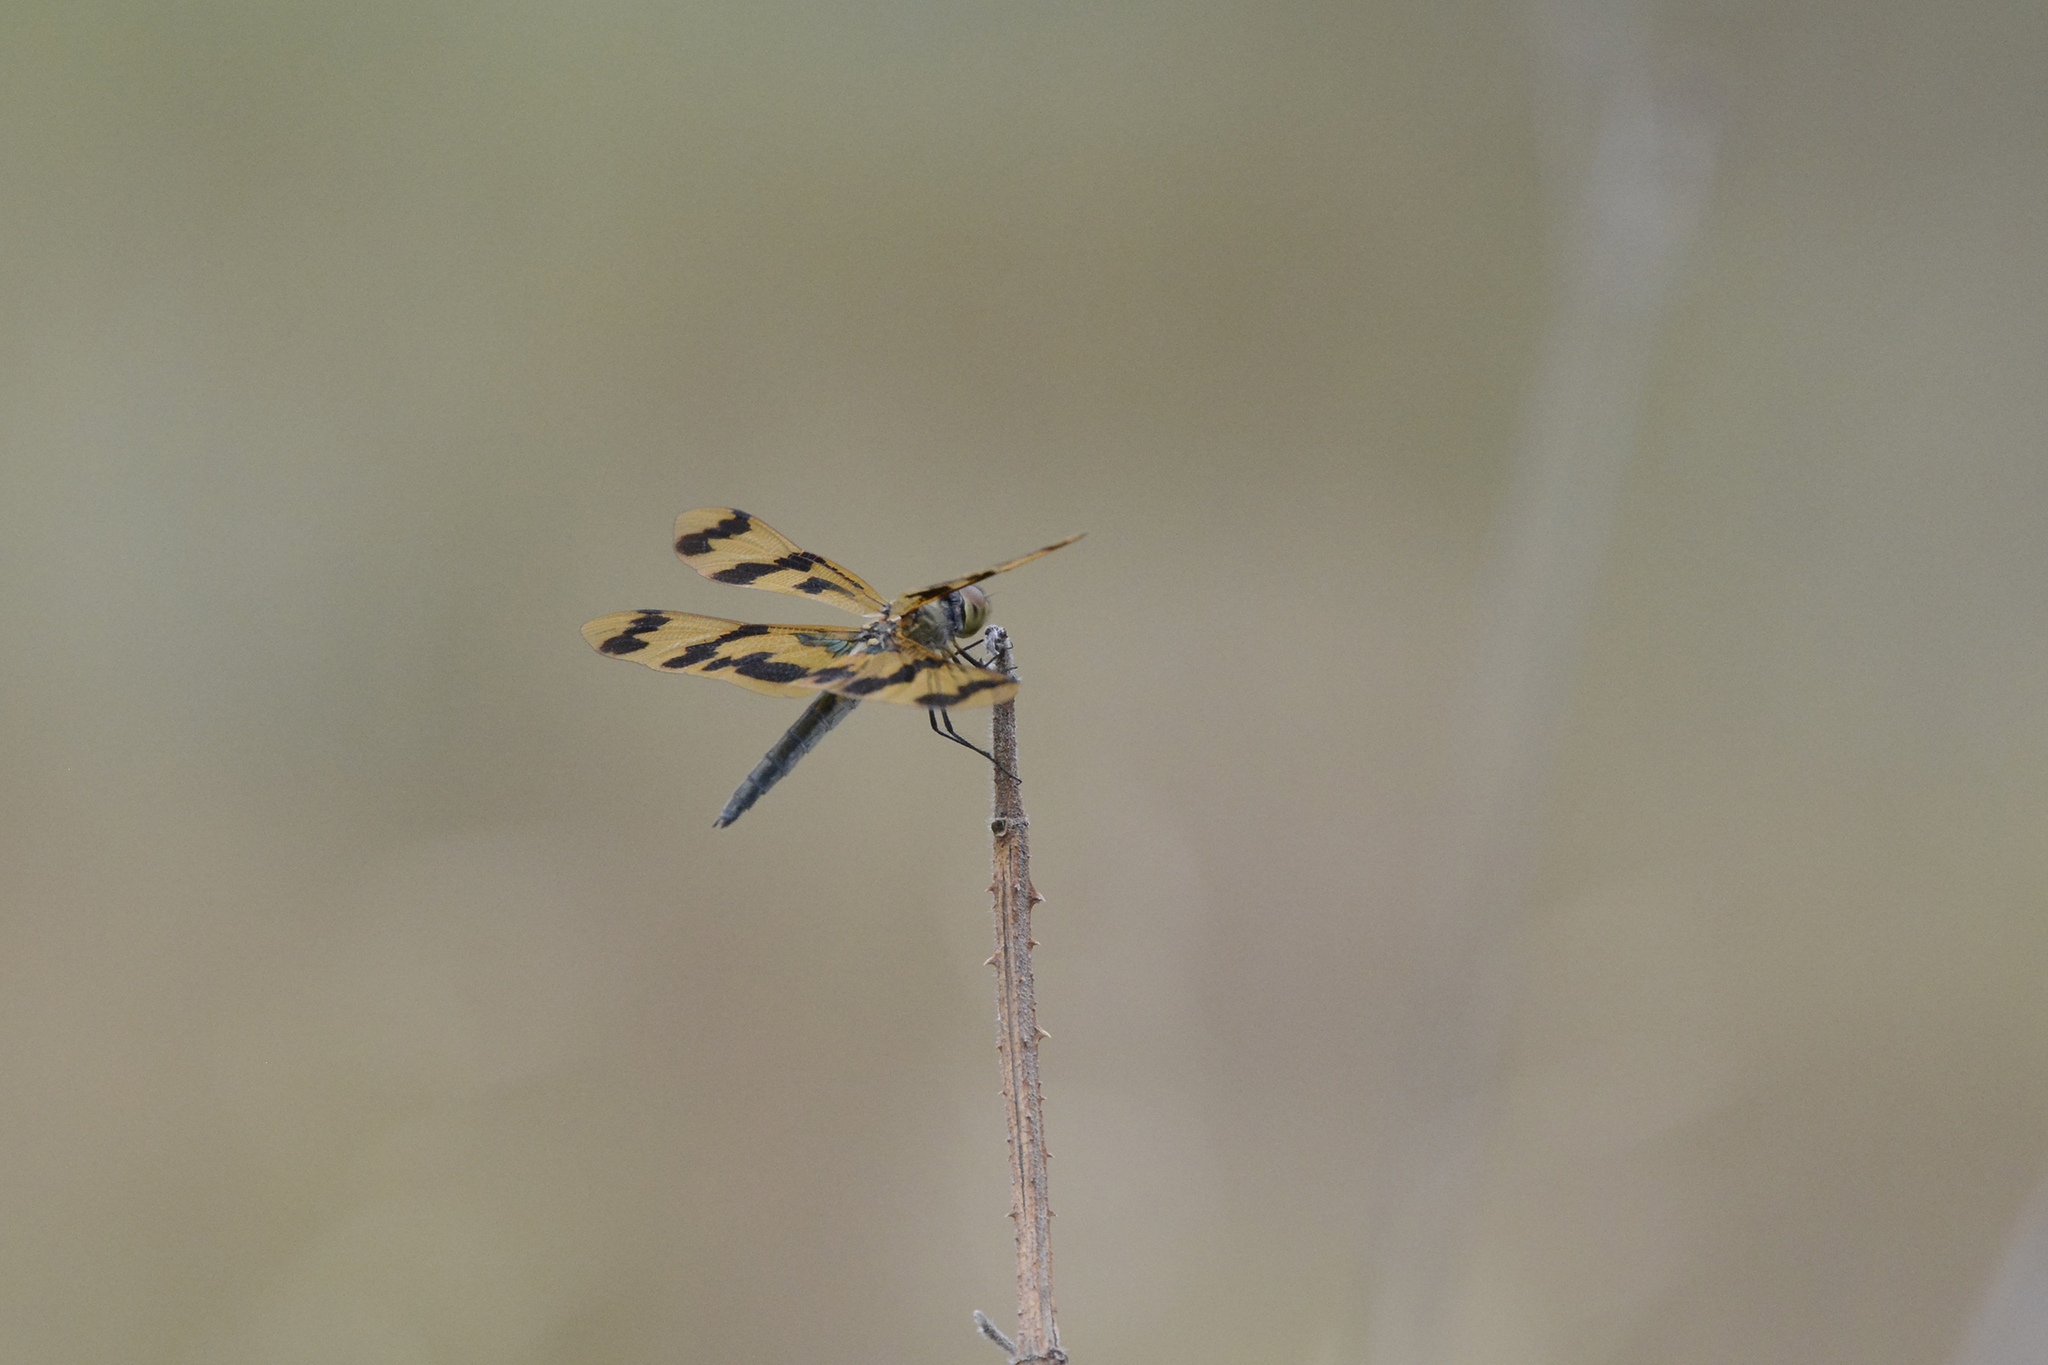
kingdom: Animalia
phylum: Arthropoda
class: Insecta
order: Odonata
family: Libellulidae
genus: Rhyothemis
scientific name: Rhyothemis graphiptera
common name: Graphic flutterer
